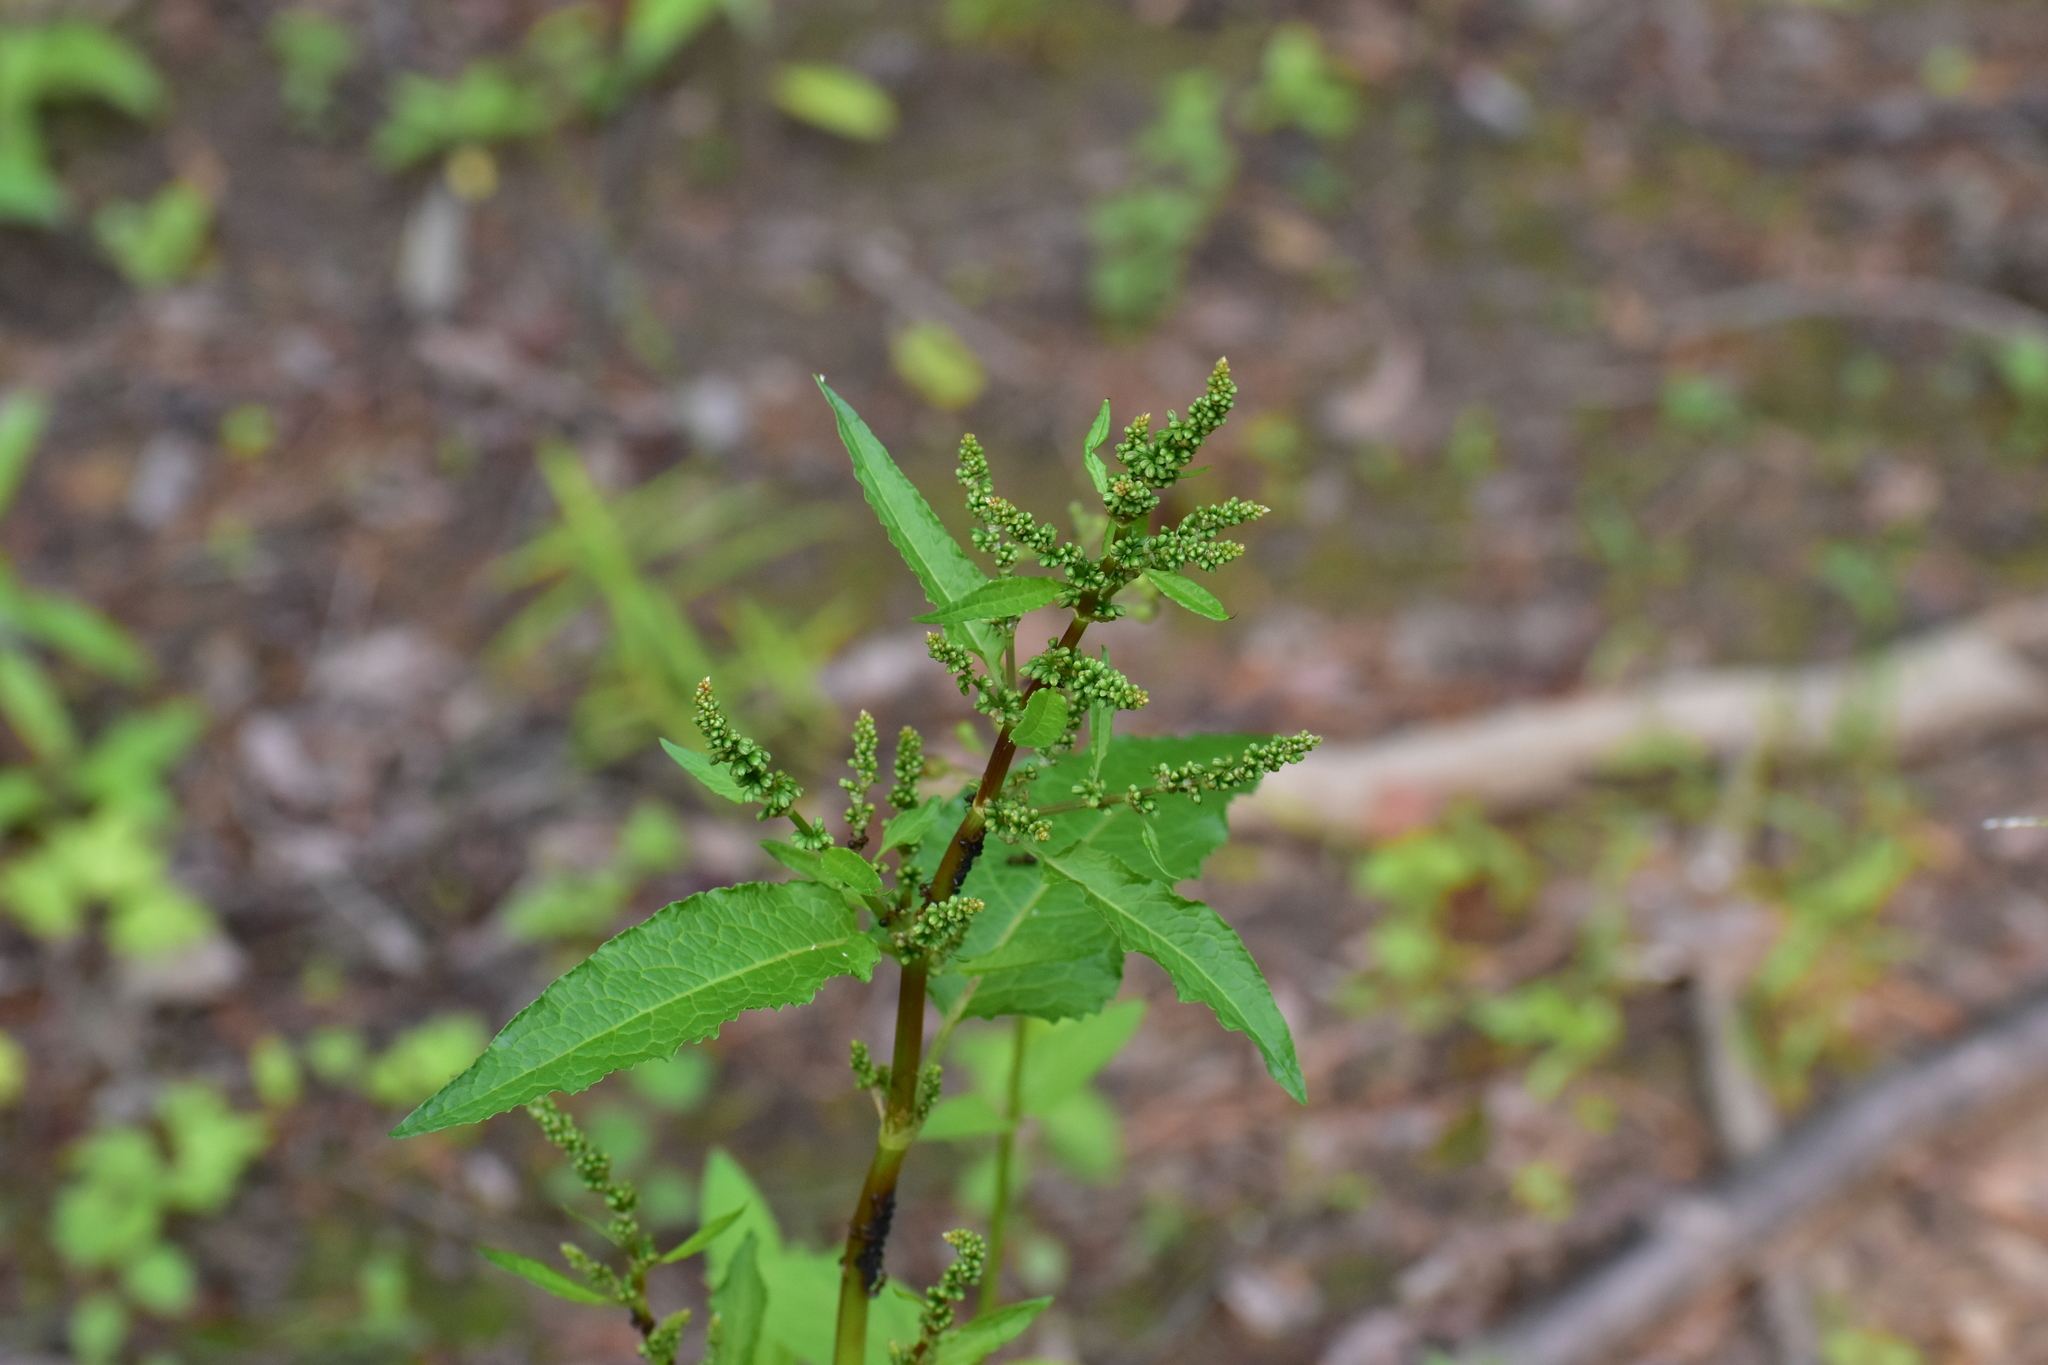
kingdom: Plantae
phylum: Tracheophyta
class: Magnoliopsida
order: Caryophyllales
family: Polygonaceae
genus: Rumex
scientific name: Rumex obtusifolius
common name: Bitter dock
